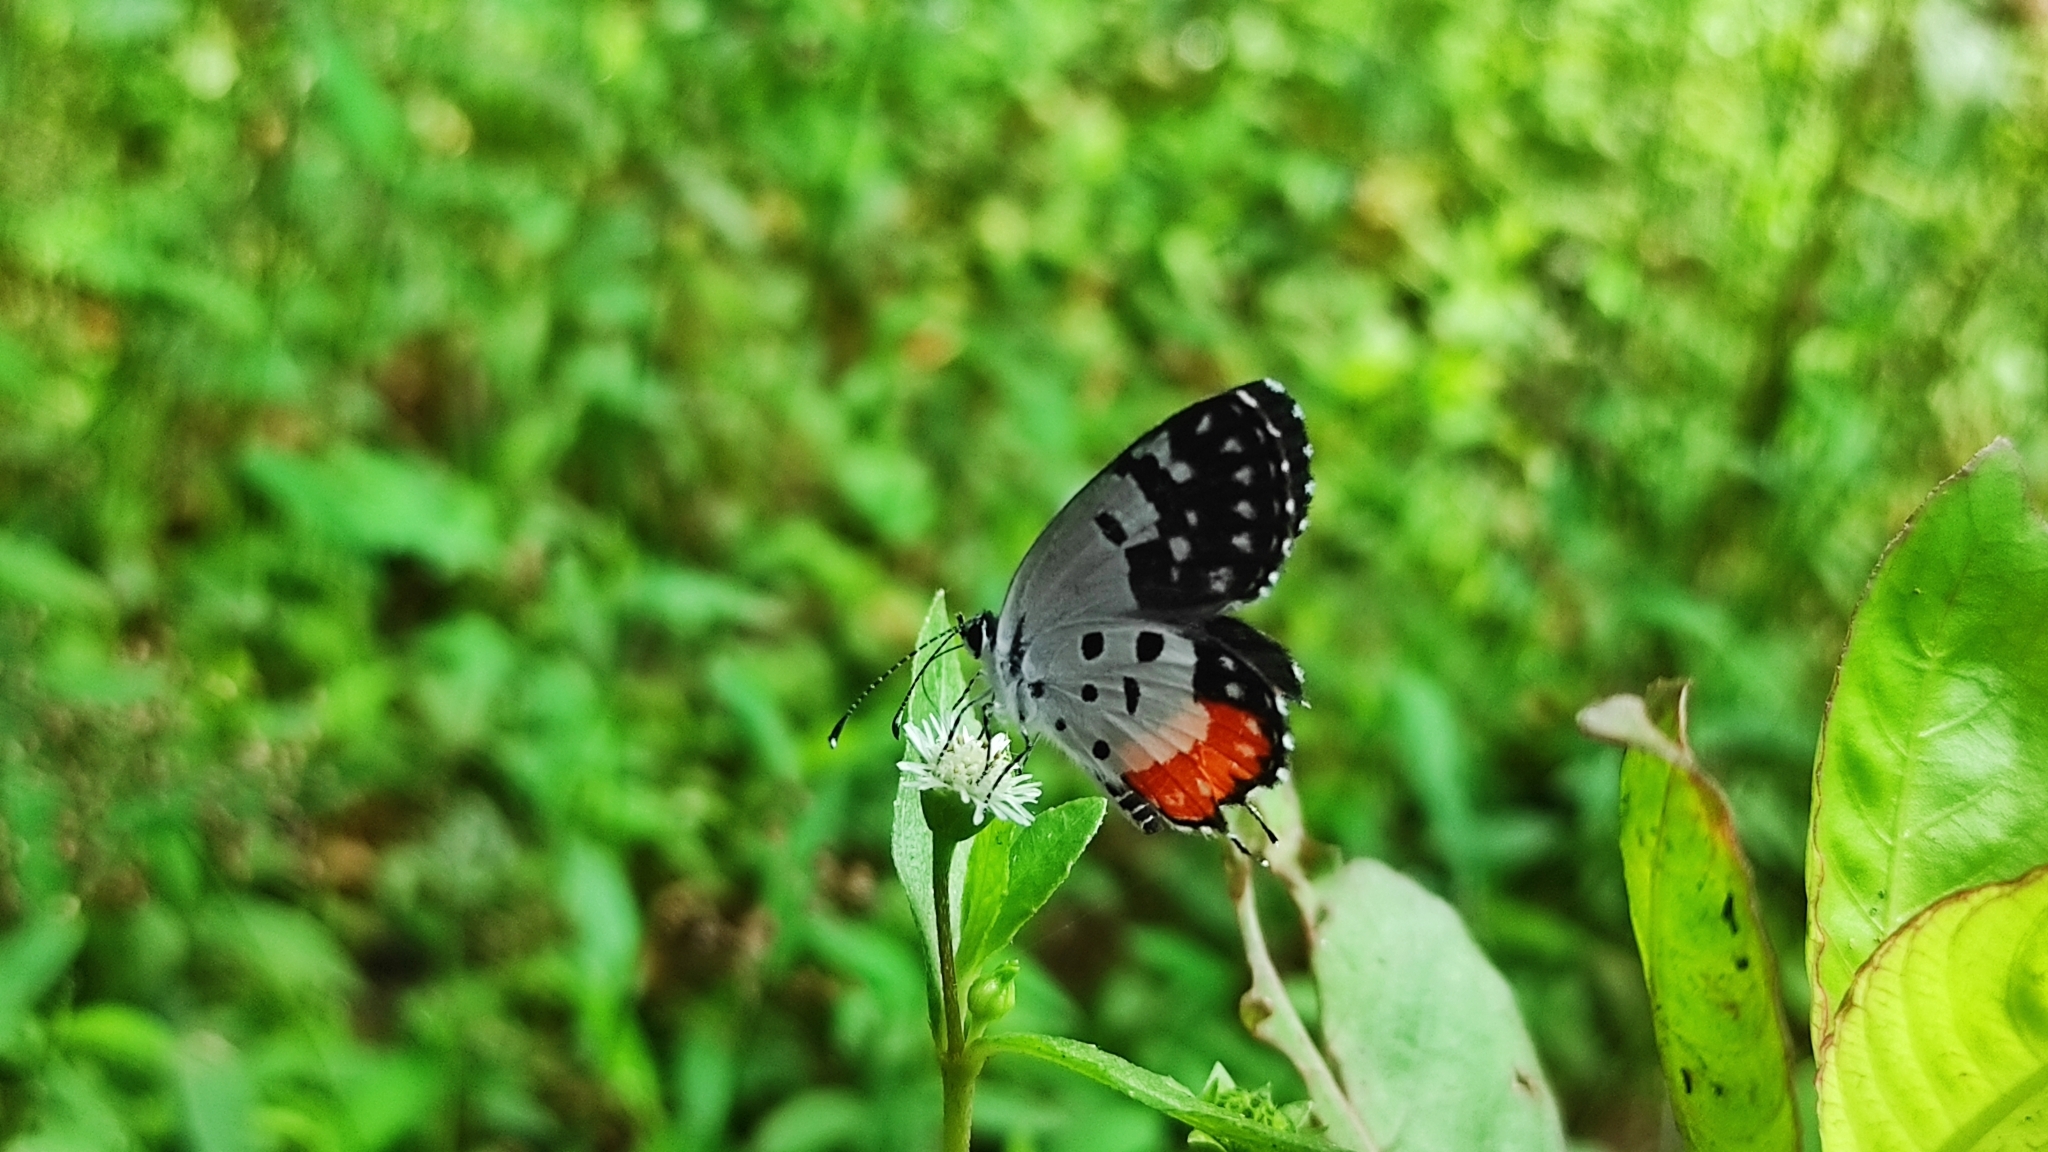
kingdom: Animalia
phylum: Arthropoda
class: Insecta
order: Lepidoptera
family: Lycaenidae
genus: Talicada
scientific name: Talicada nyseus
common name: Red pierrot
